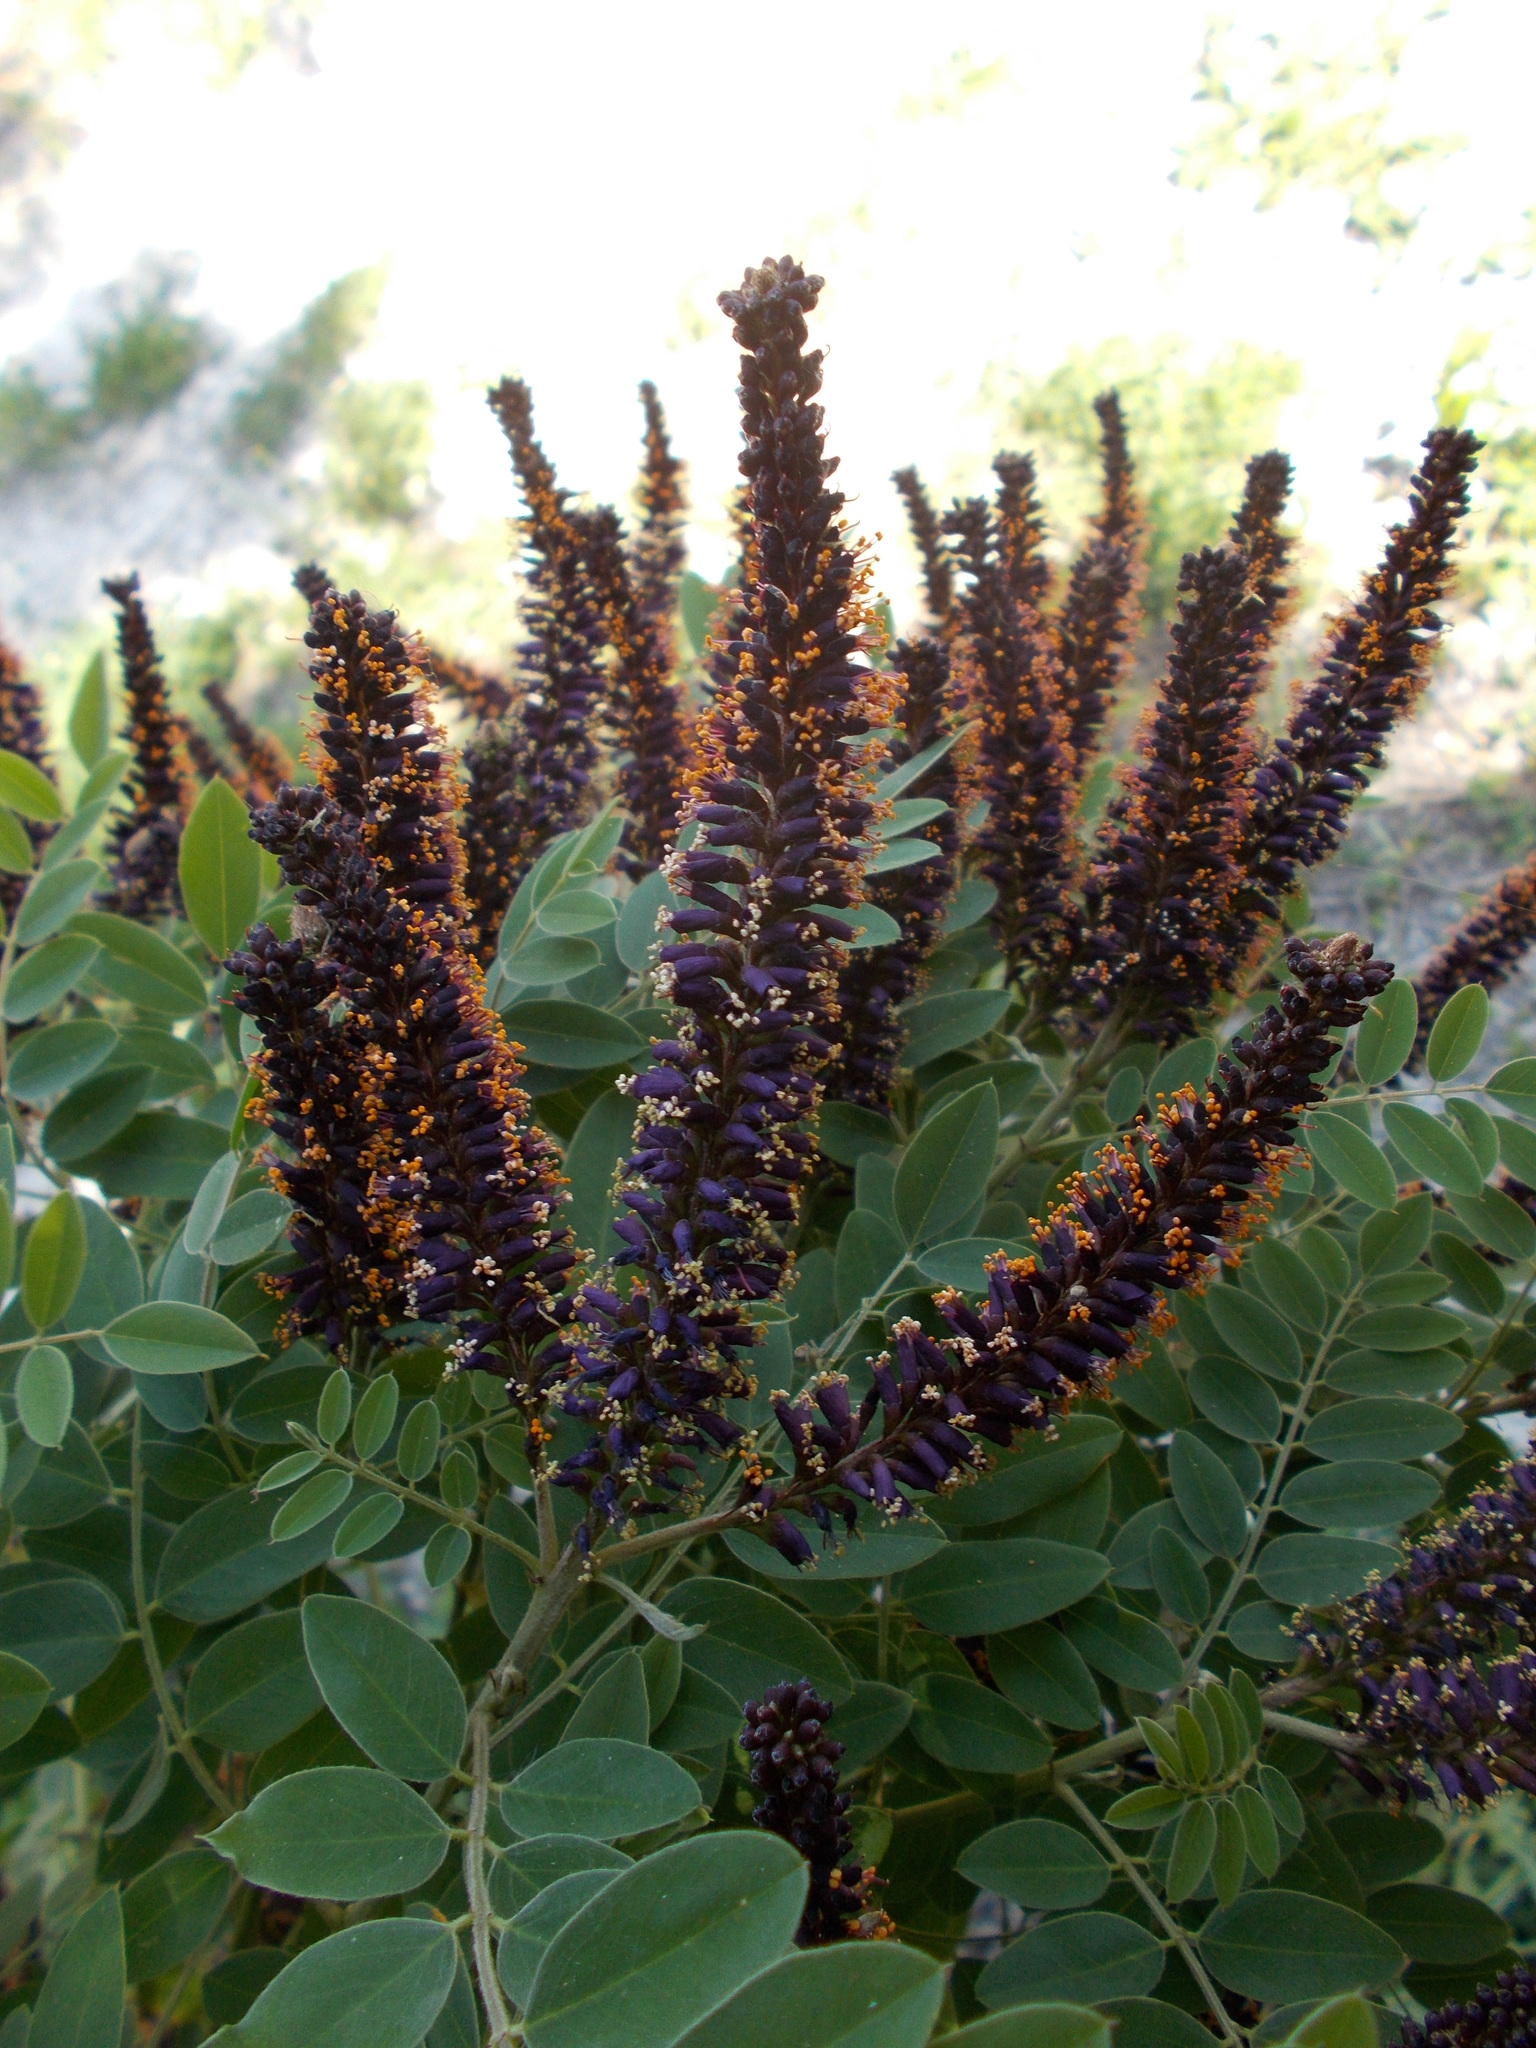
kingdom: Plantae
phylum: Tracheophyta
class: Magnoliopsida
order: Fabales
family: Fabaceae
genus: Amorpha
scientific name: Amorpha fruticosa
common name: False indigo
